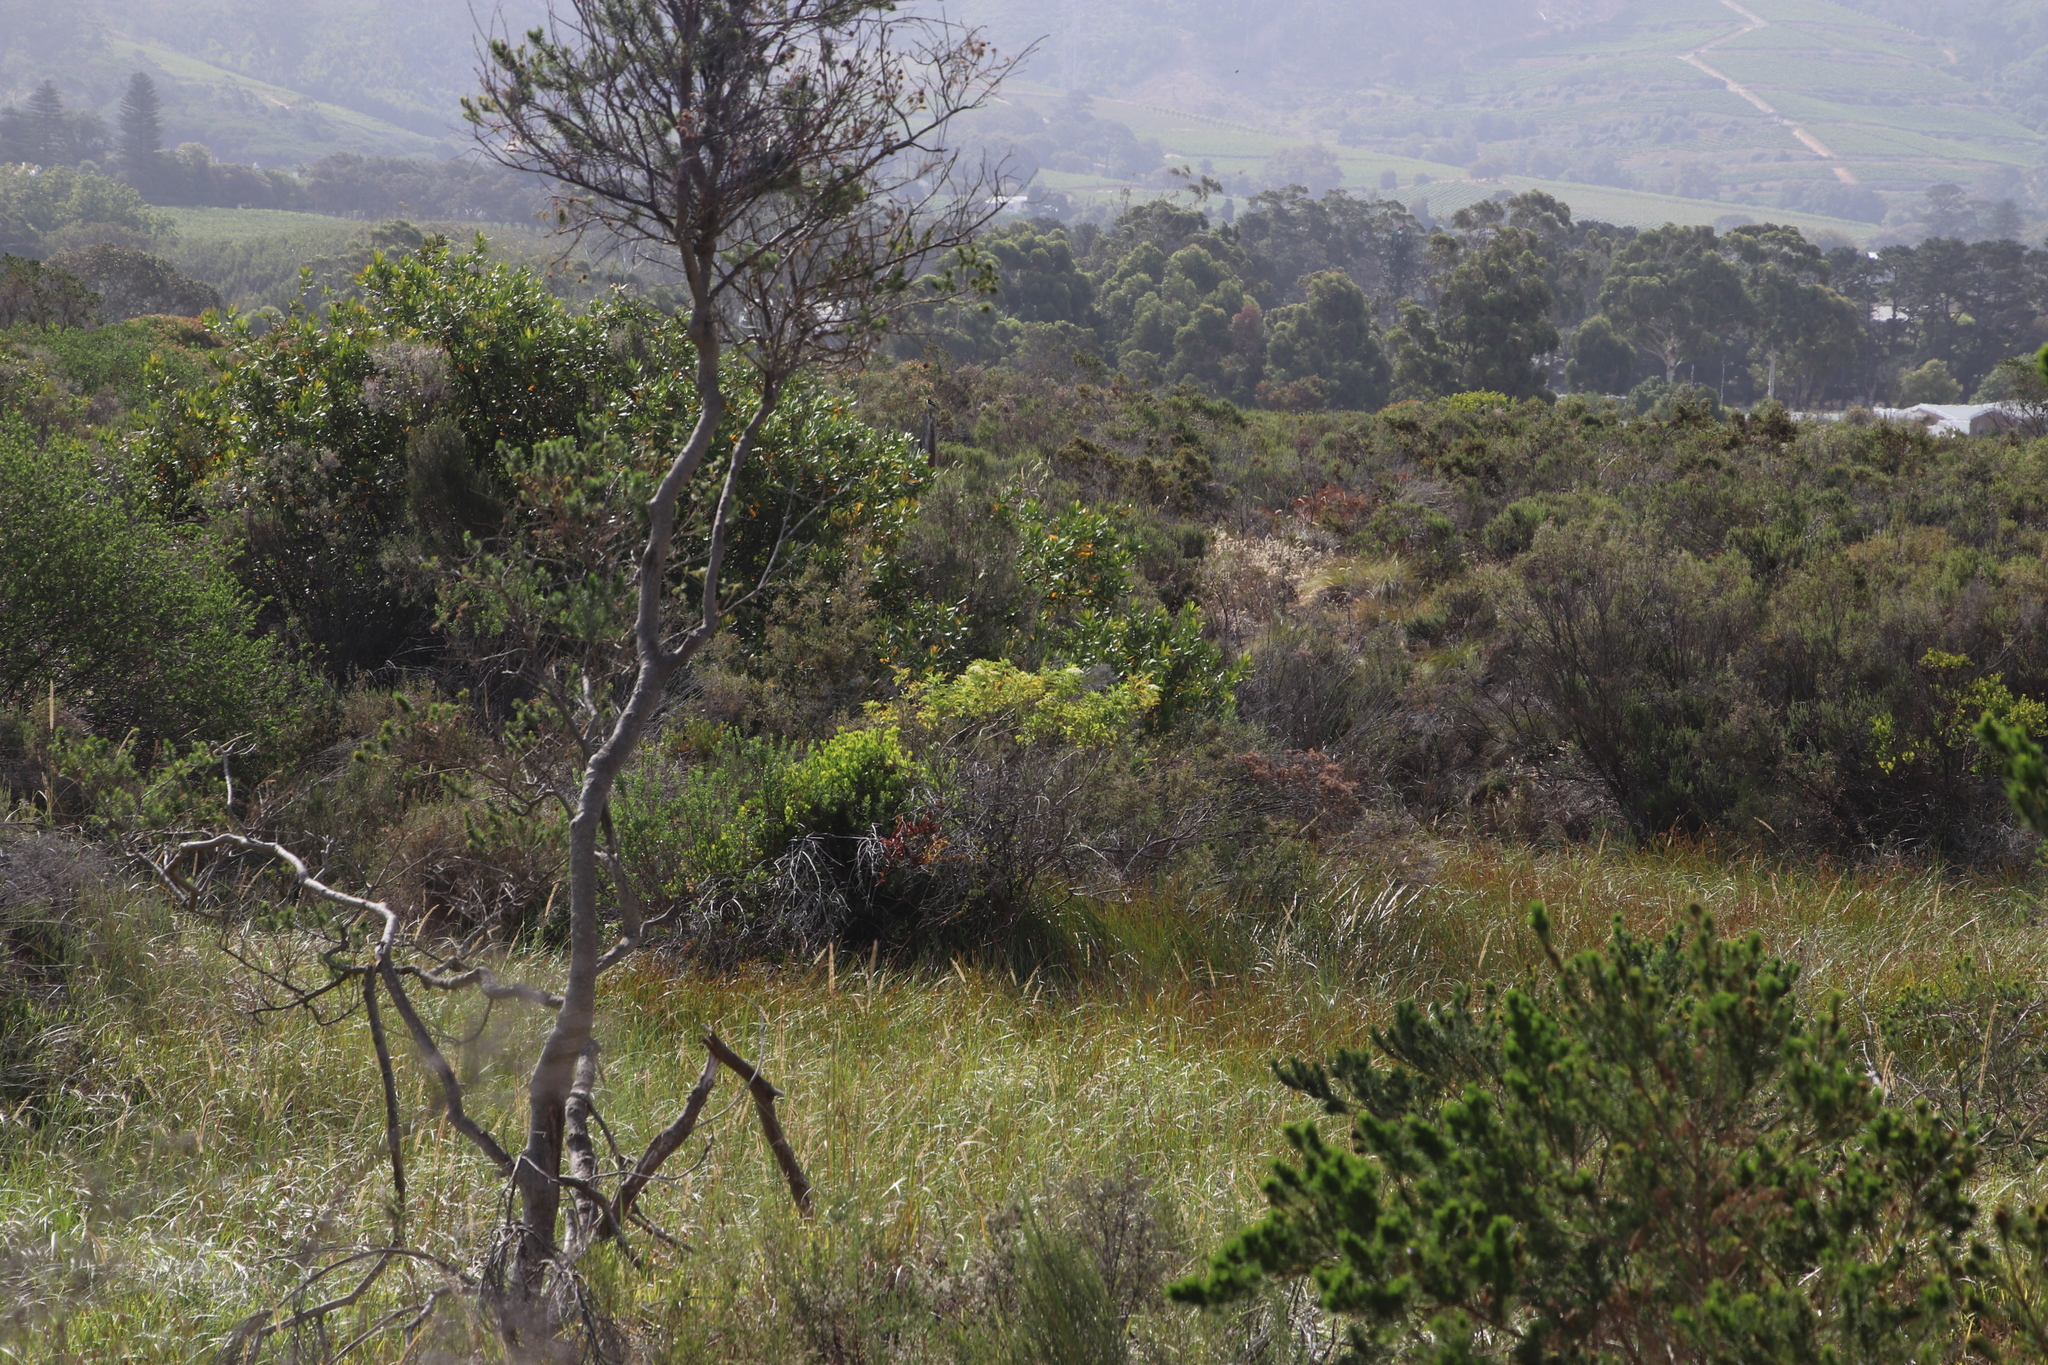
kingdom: Plantae
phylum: Tracheophyta
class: Magnoliopsida
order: Dipsacales
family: Viburnaceae
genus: Sambucus
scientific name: Sambucus nigra
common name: Elder
